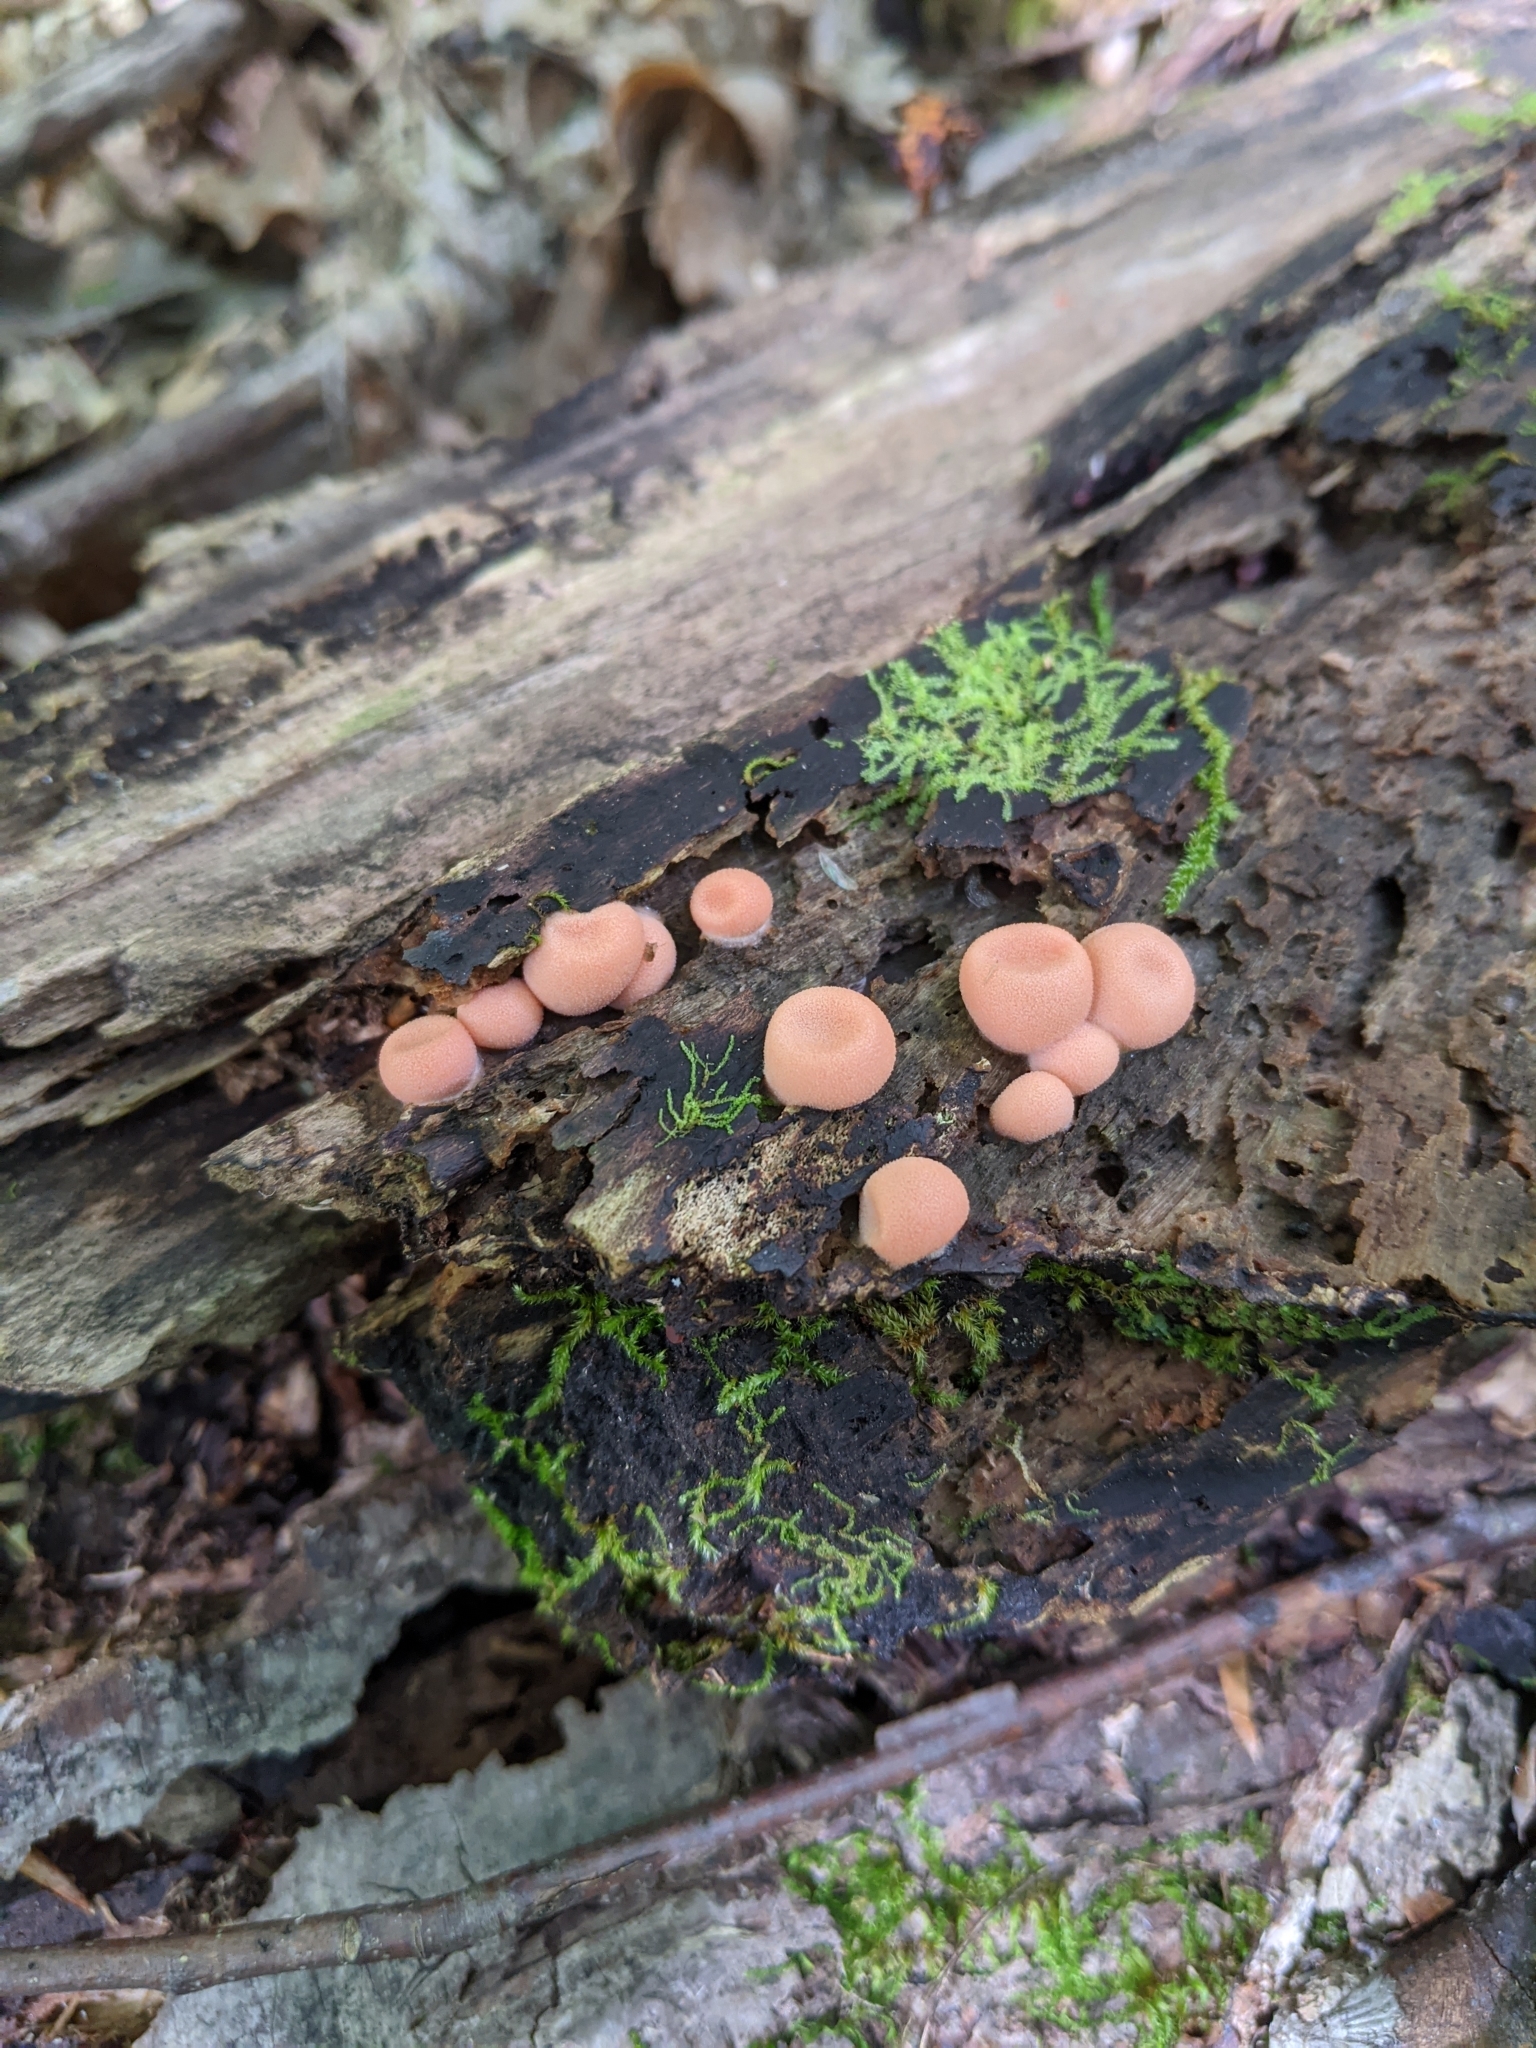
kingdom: Protozoa
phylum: Mycetozoa
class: Myxomycetes
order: Cribrariales
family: Tubiferaceae
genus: Lycogala
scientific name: Lycogala epidendrum
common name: Wolf's milk
